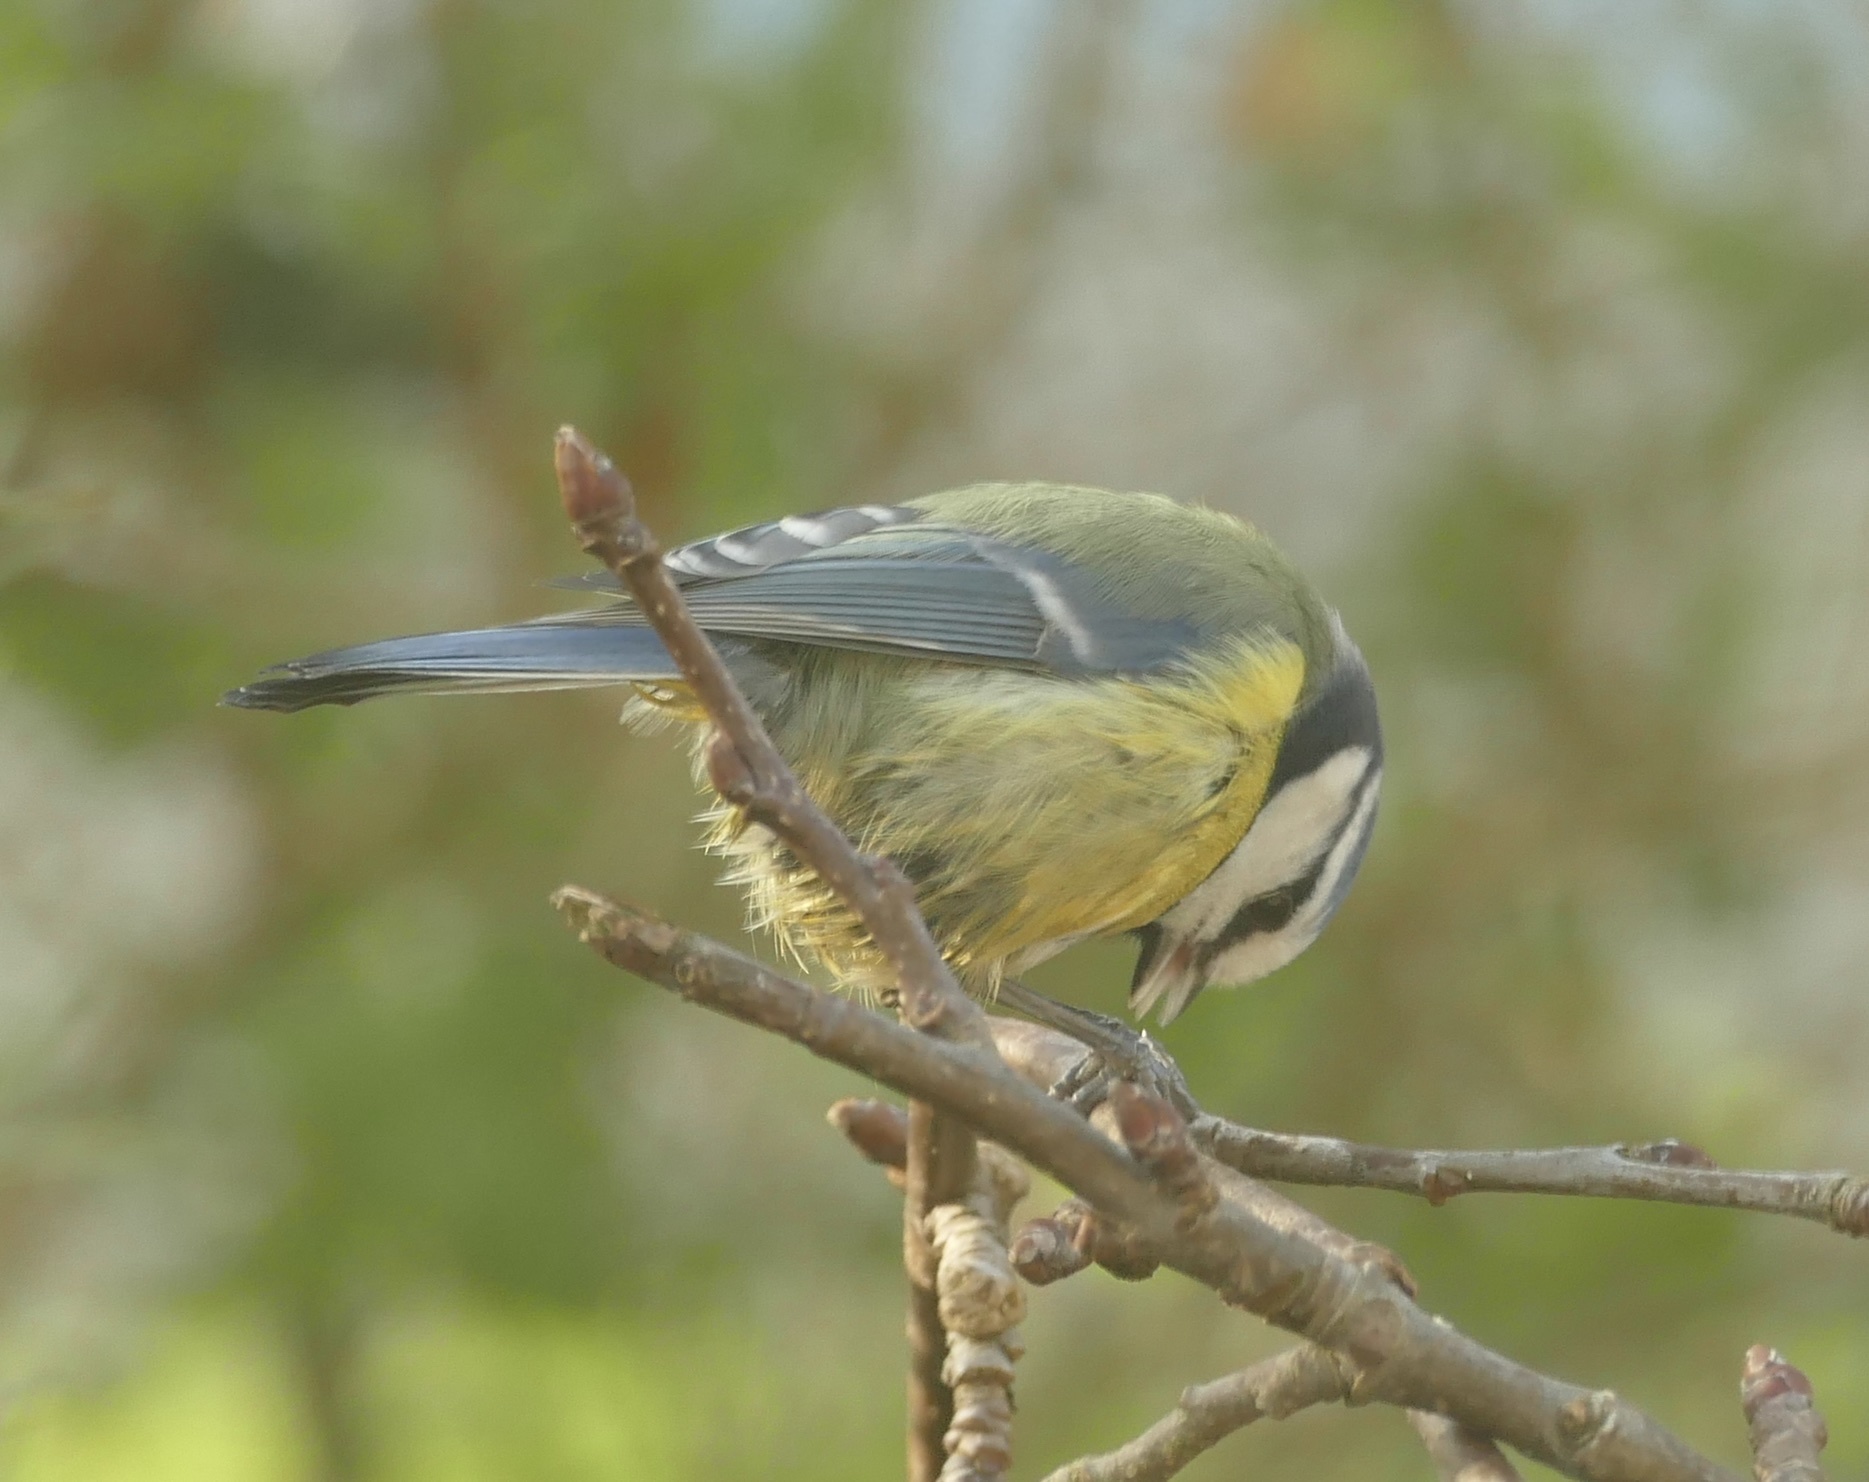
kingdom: Animalia
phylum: Chordata
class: Aves
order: Passeriformes
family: Paridae
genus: Cyanistes
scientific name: Cyanistes caeruleus
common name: Eurasian blue tit
